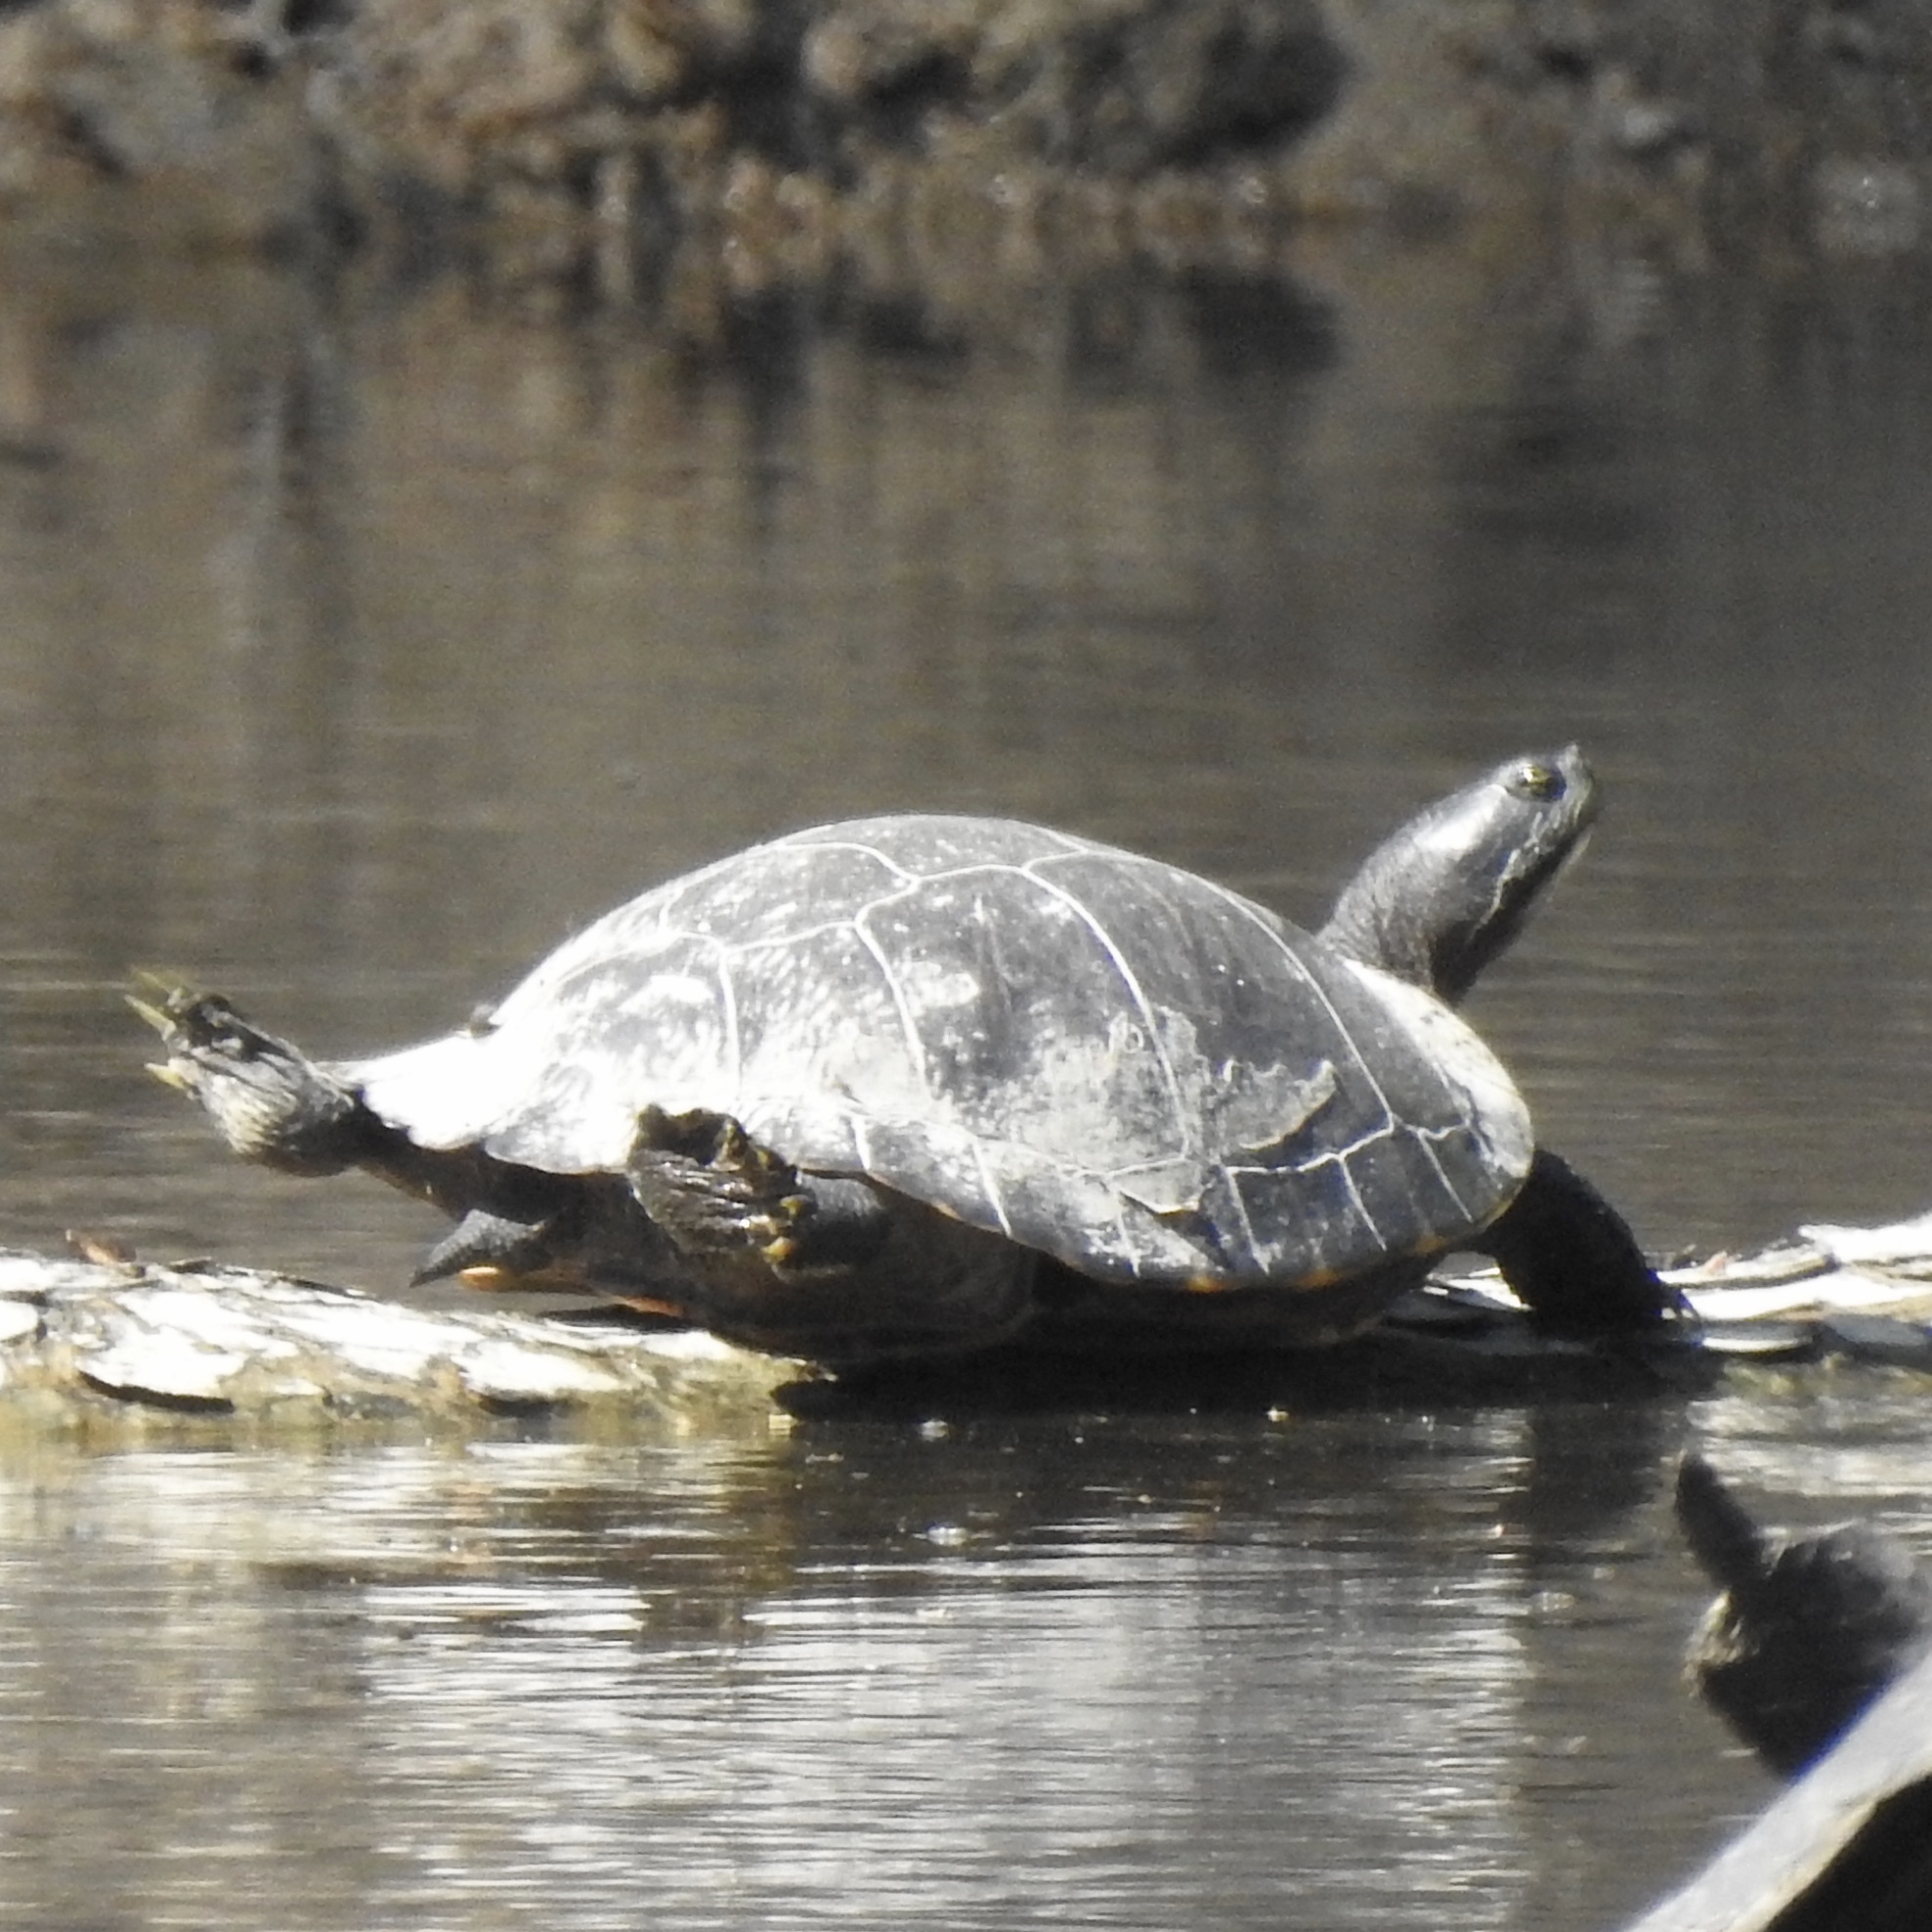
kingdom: Animalia
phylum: Chordata
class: Testudines
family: Emydidae
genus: Pseudemys
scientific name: Pseudemys concinna
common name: Eastern river cooter
